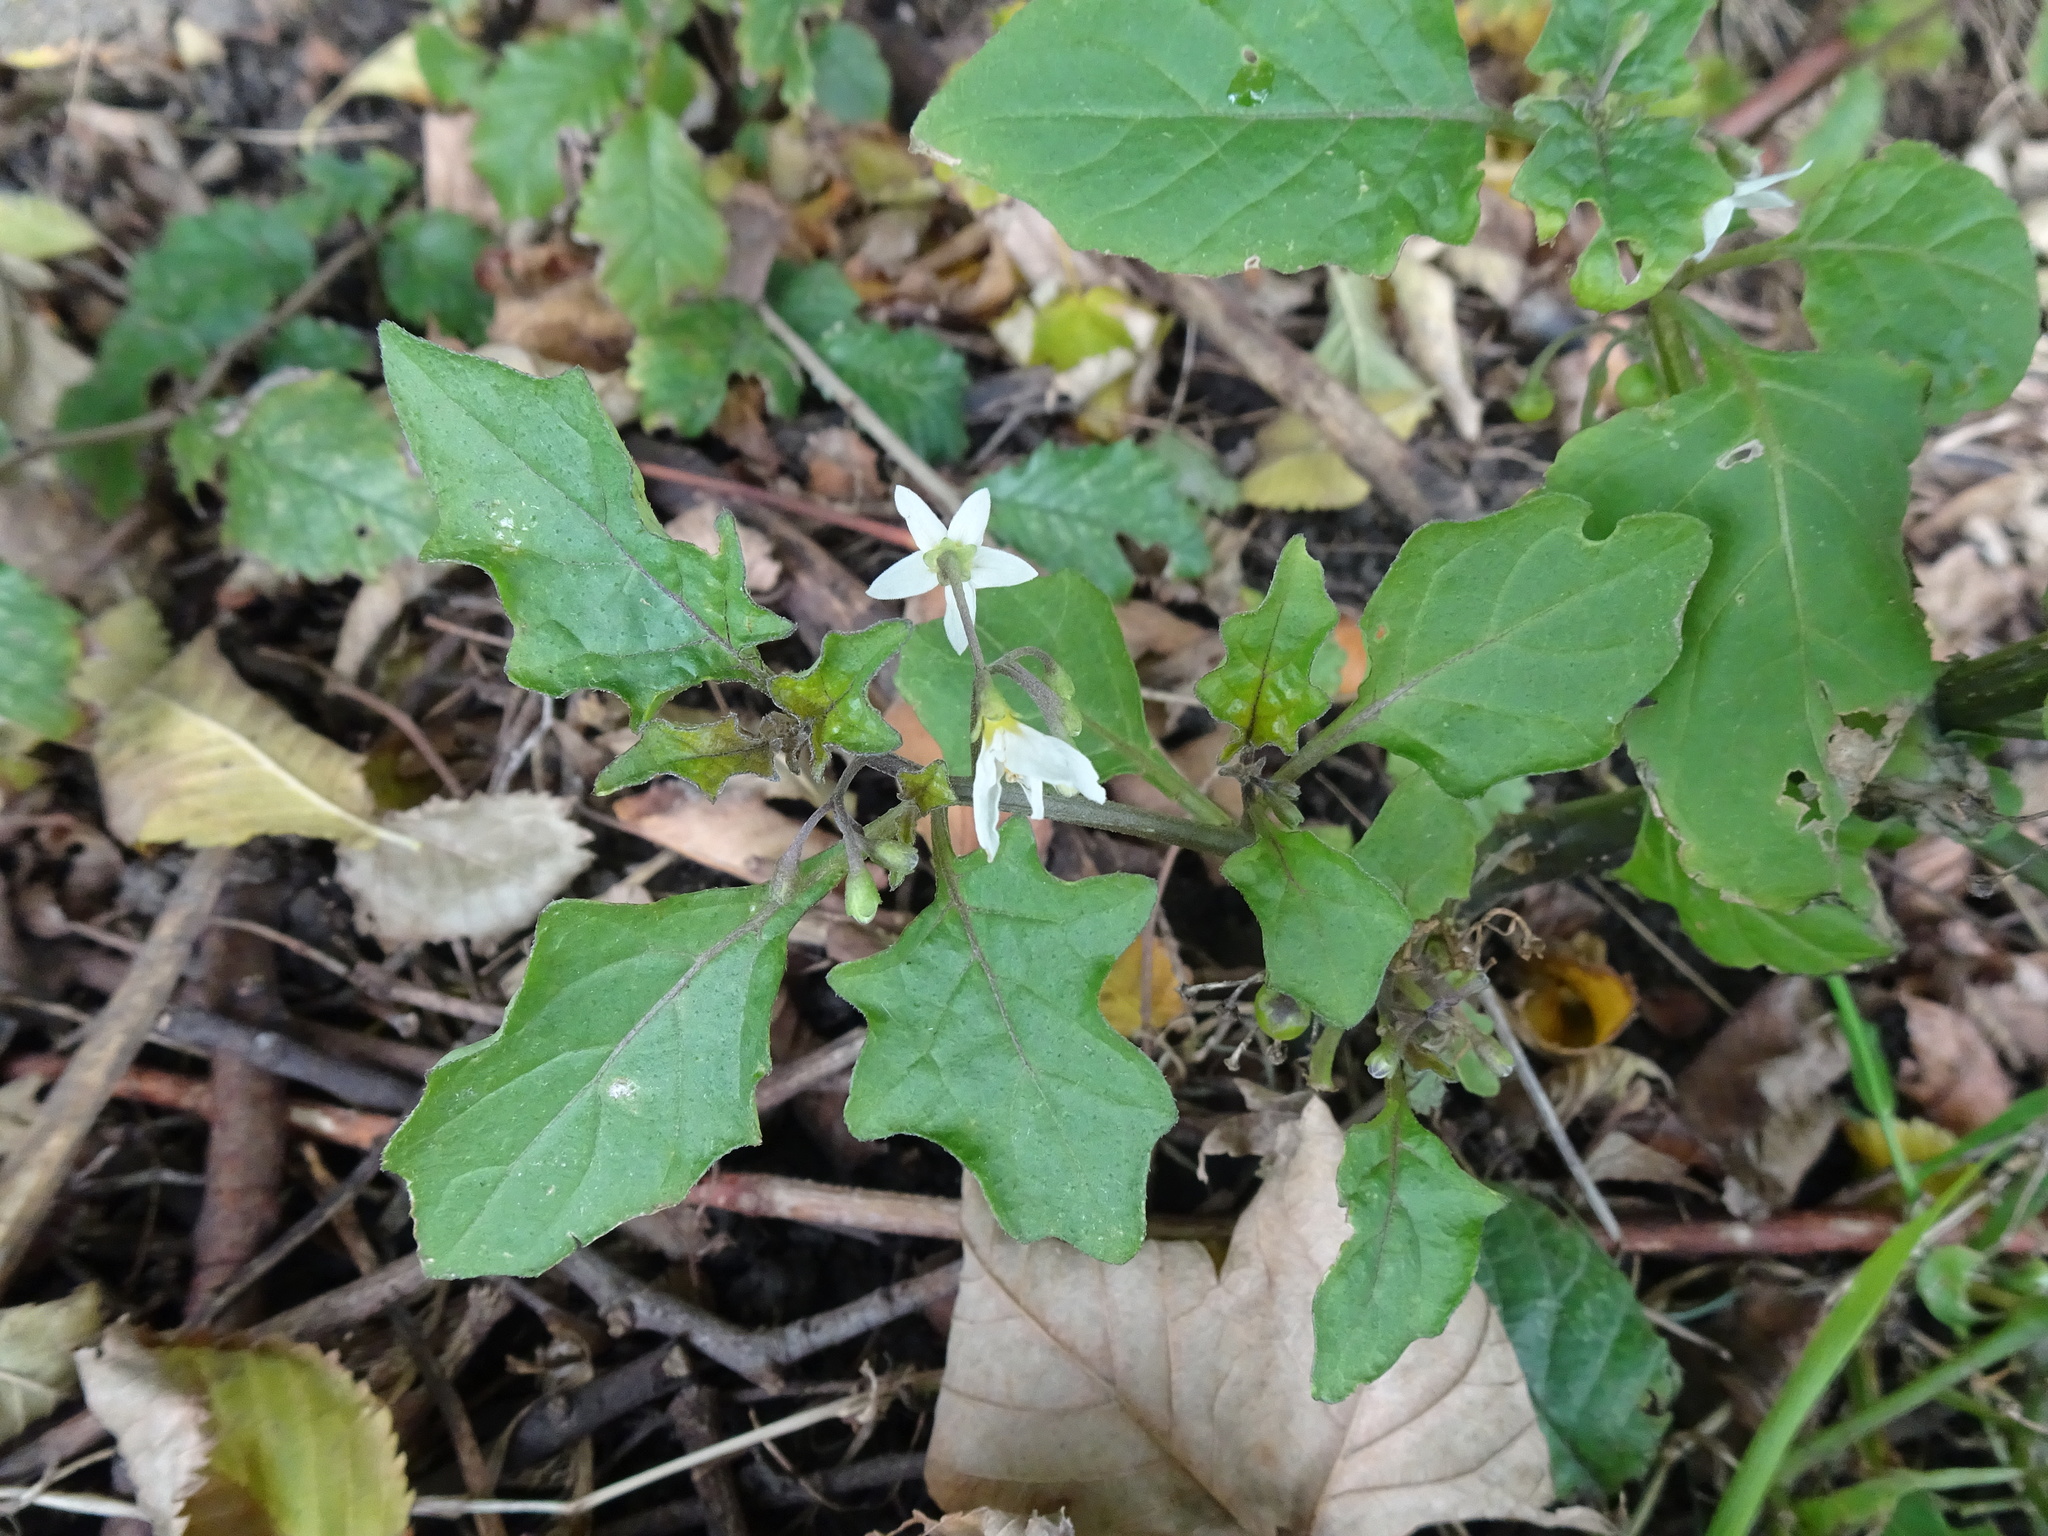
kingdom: Plantae
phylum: Tracheophyta
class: Magnoliopsida
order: Solanales
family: Solanaceae
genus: Solanum
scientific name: Solanum nigrum
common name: Black nightshade
